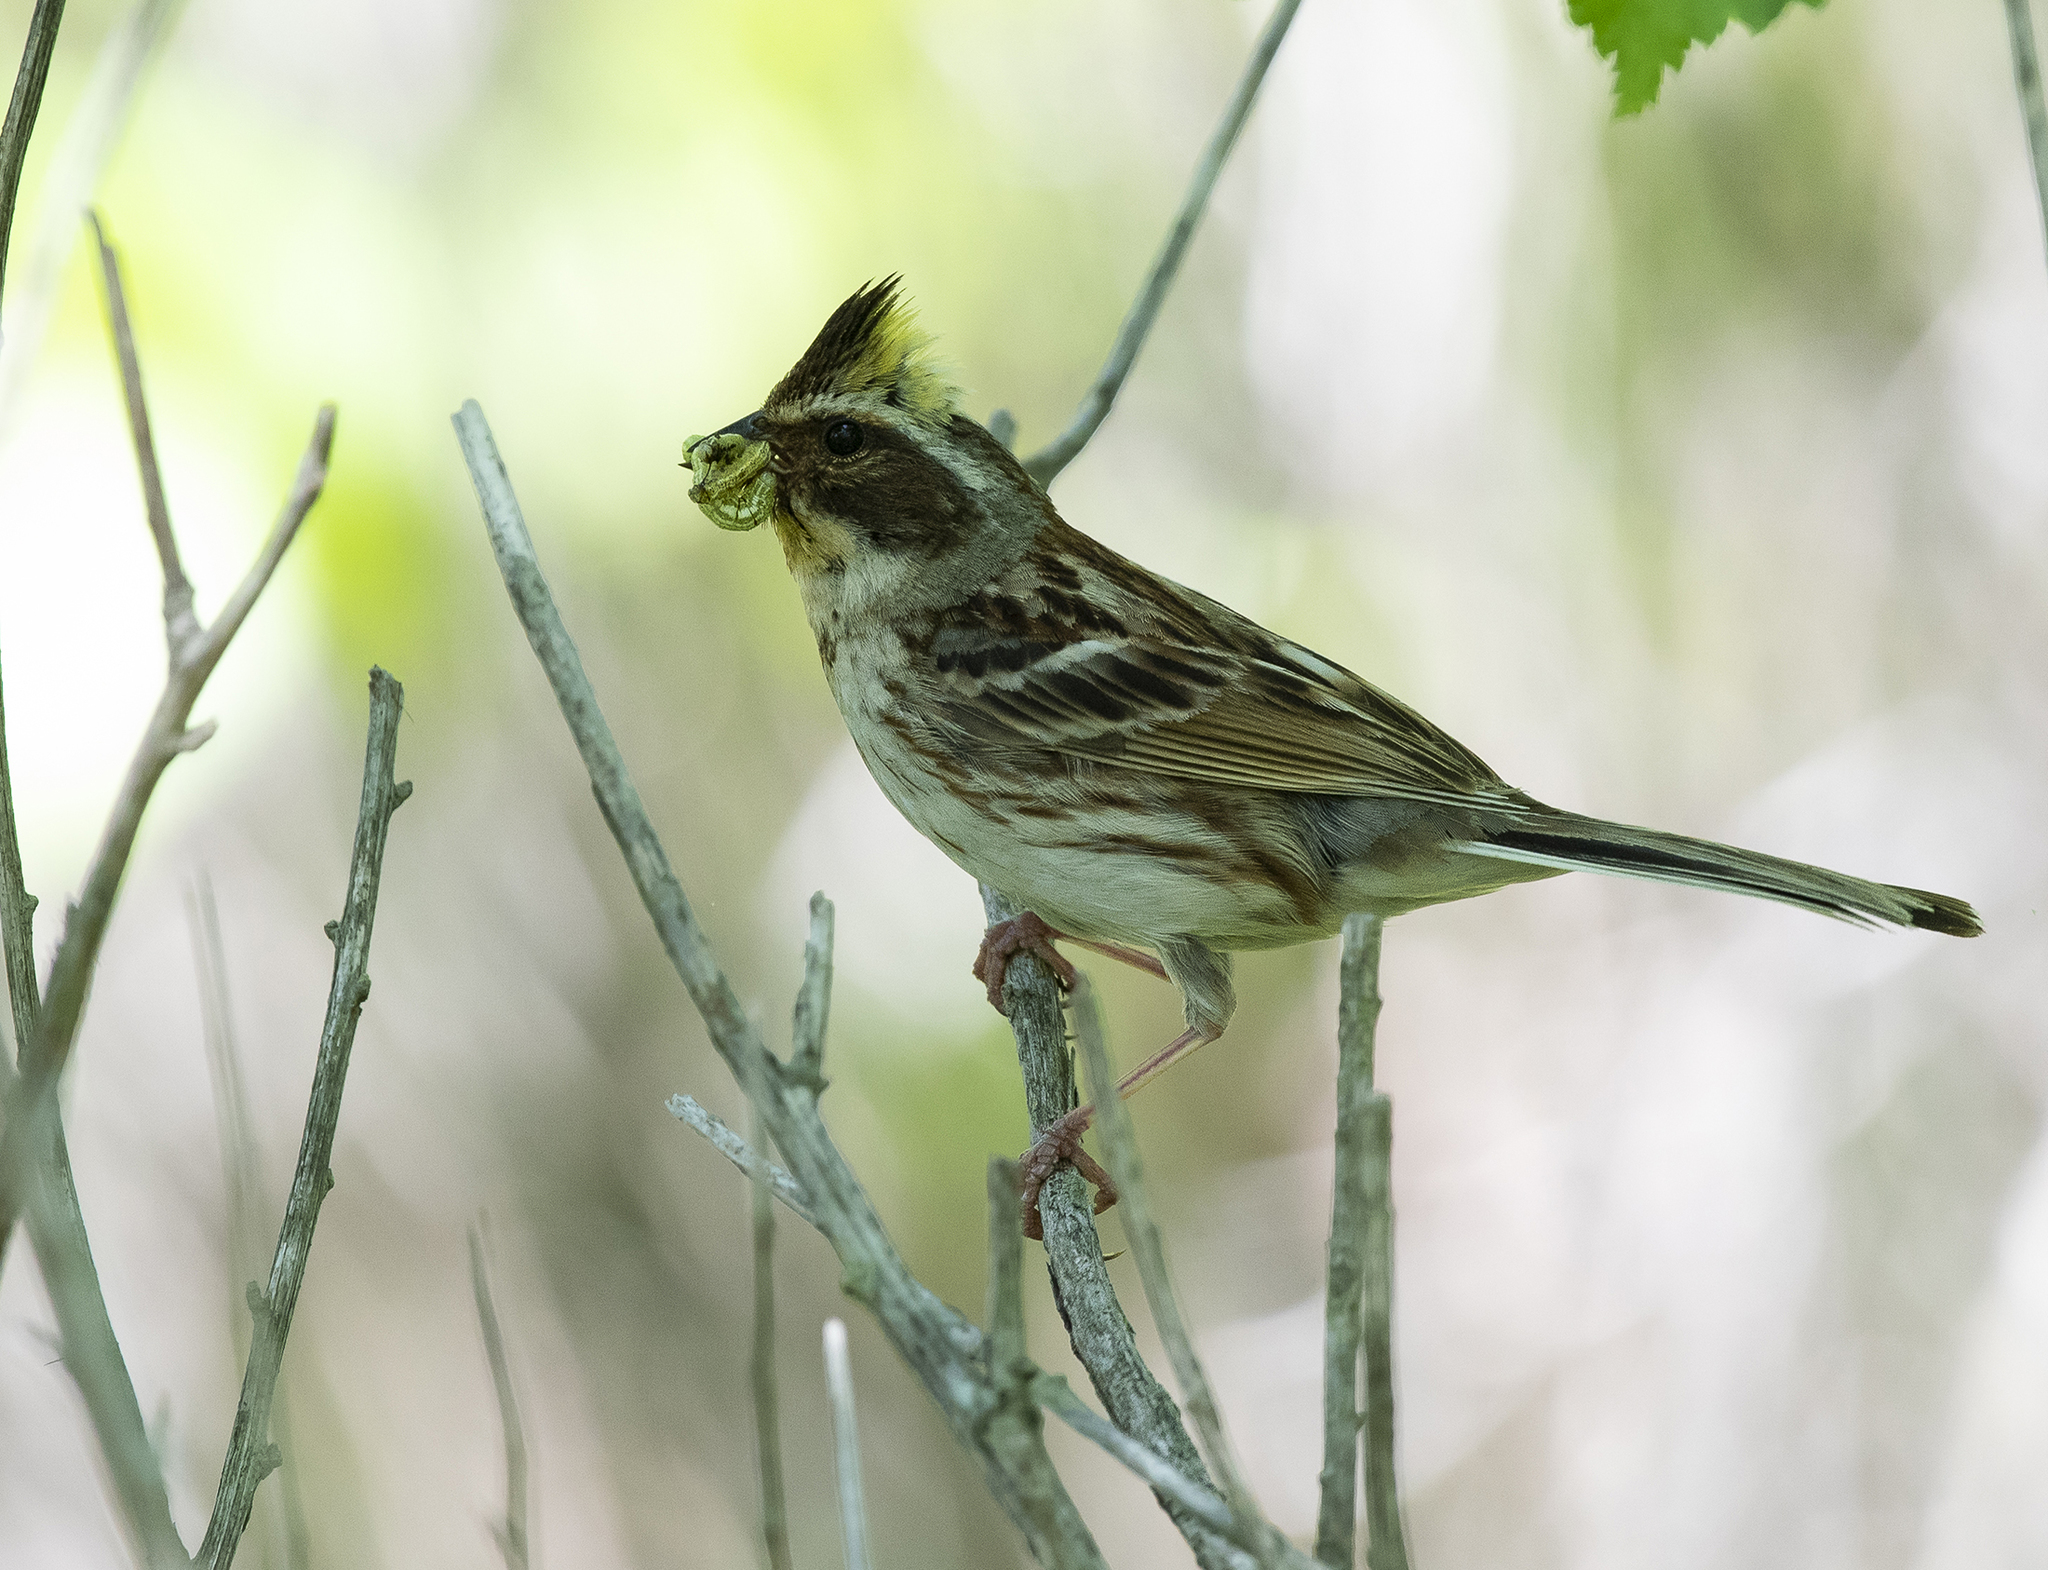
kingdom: Animalia
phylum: Chordata
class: Aves
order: Passeriformes
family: Emberizidae
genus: Emberiza
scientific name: Emberiza elegans
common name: Yellow-throated bunting
